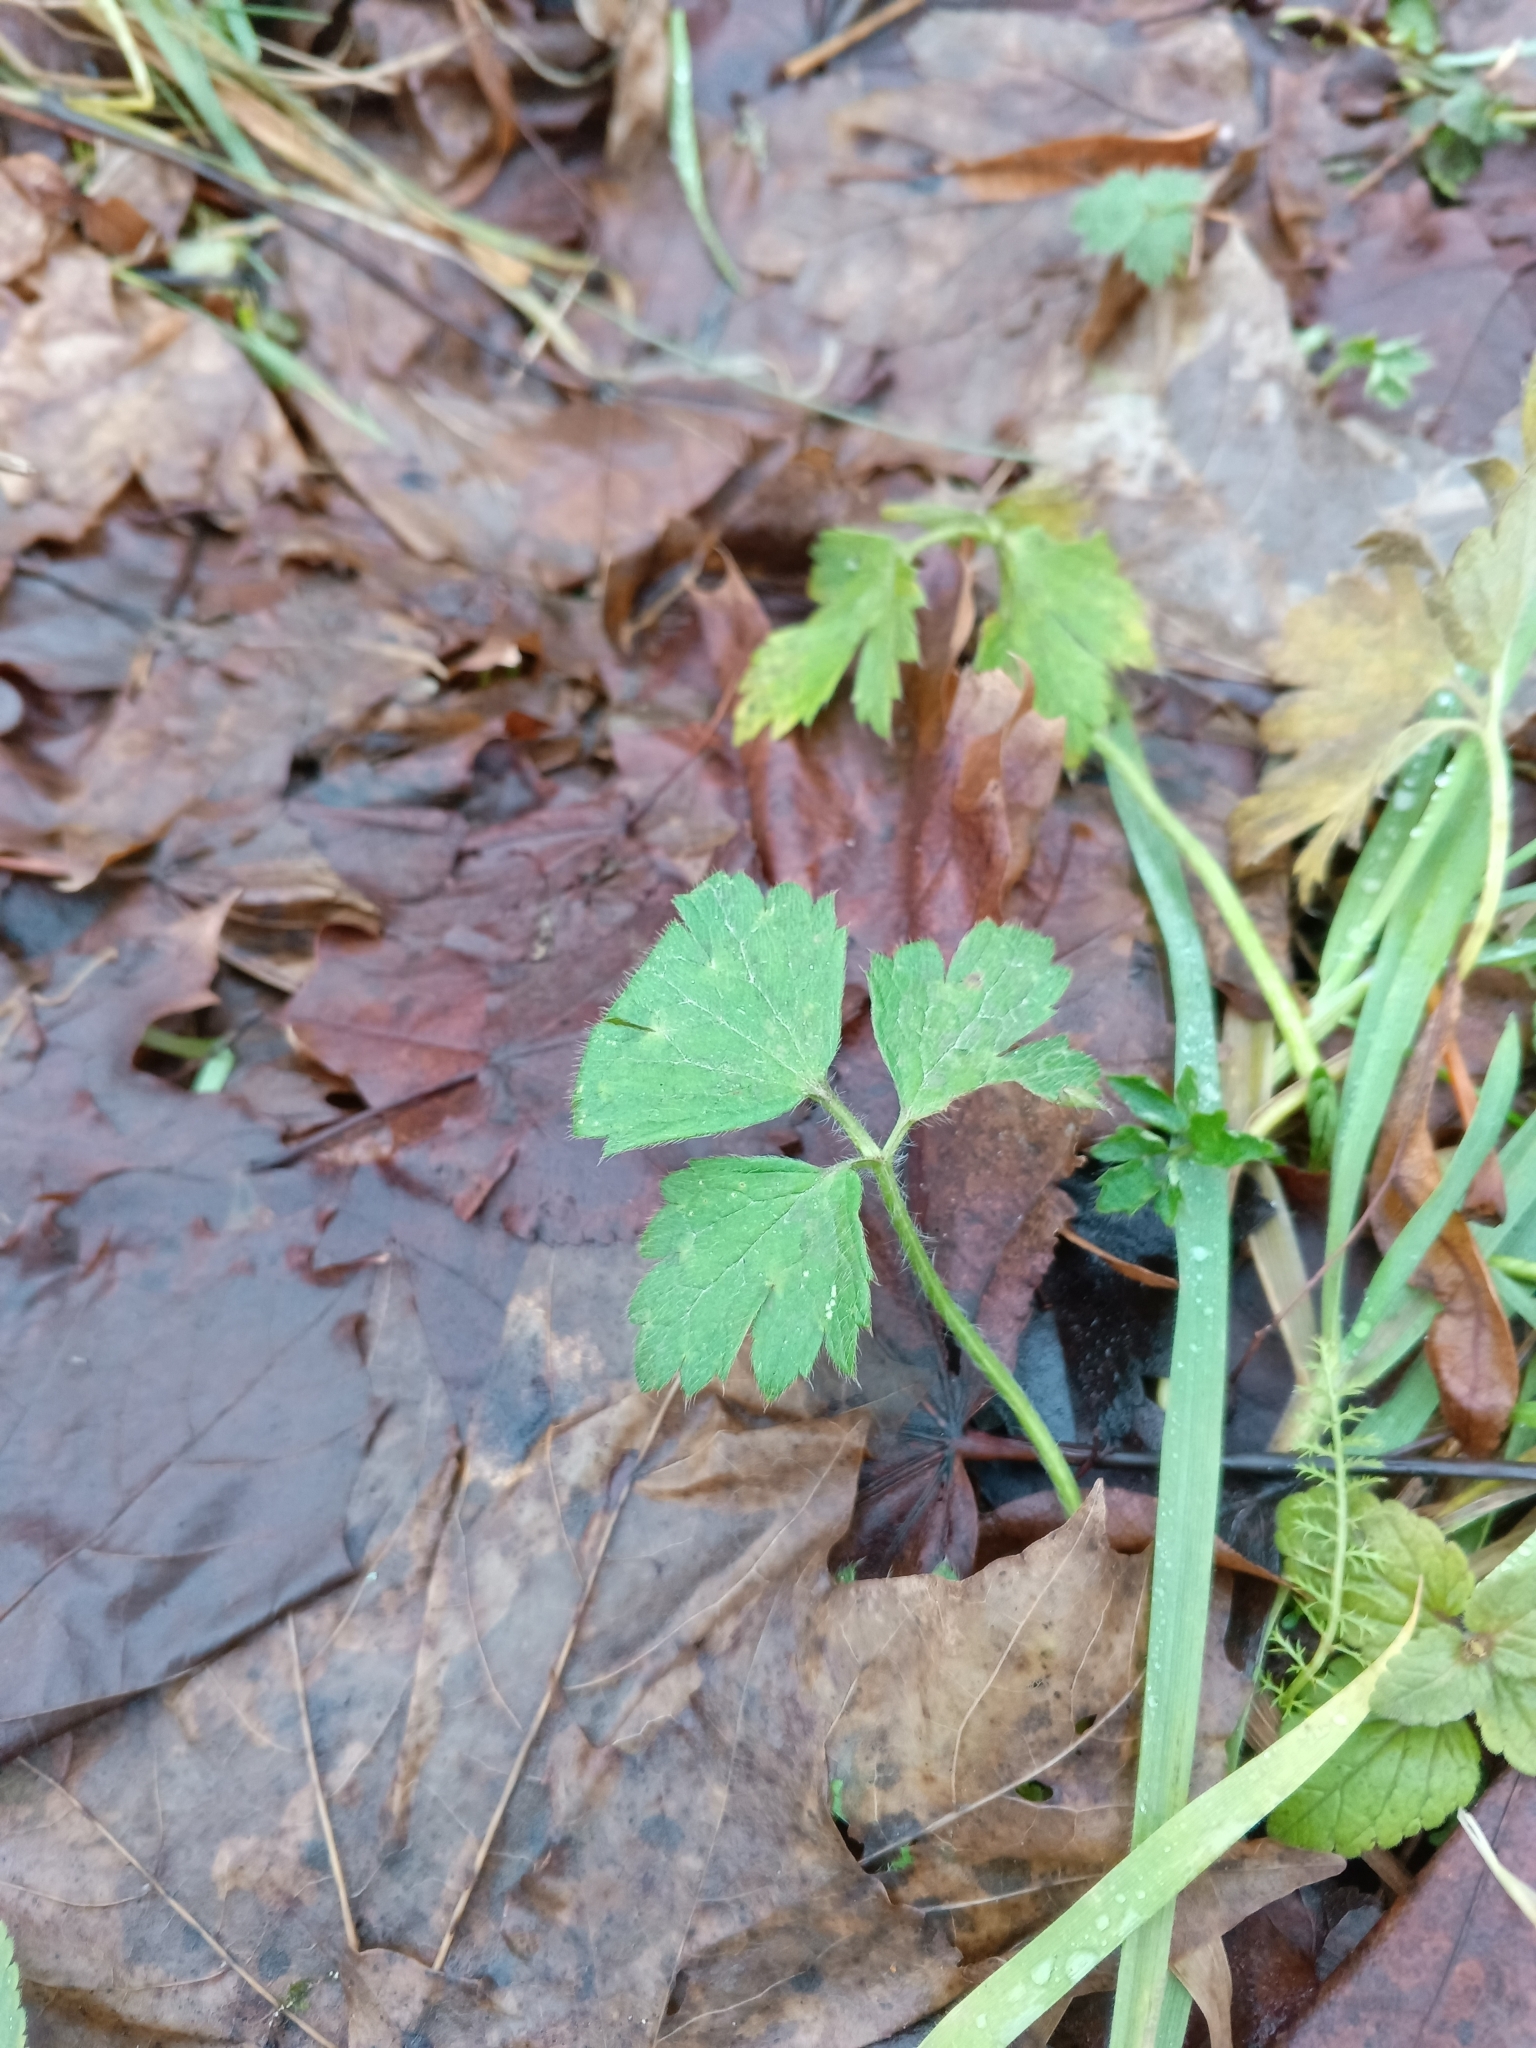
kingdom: Plantae
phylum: Tracheophyta
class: Magnoliopsida
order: Ranunculales
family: Ranunculaceae
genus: Ranunculus
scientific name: Ranunculus repens
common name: Creeping buttercup
